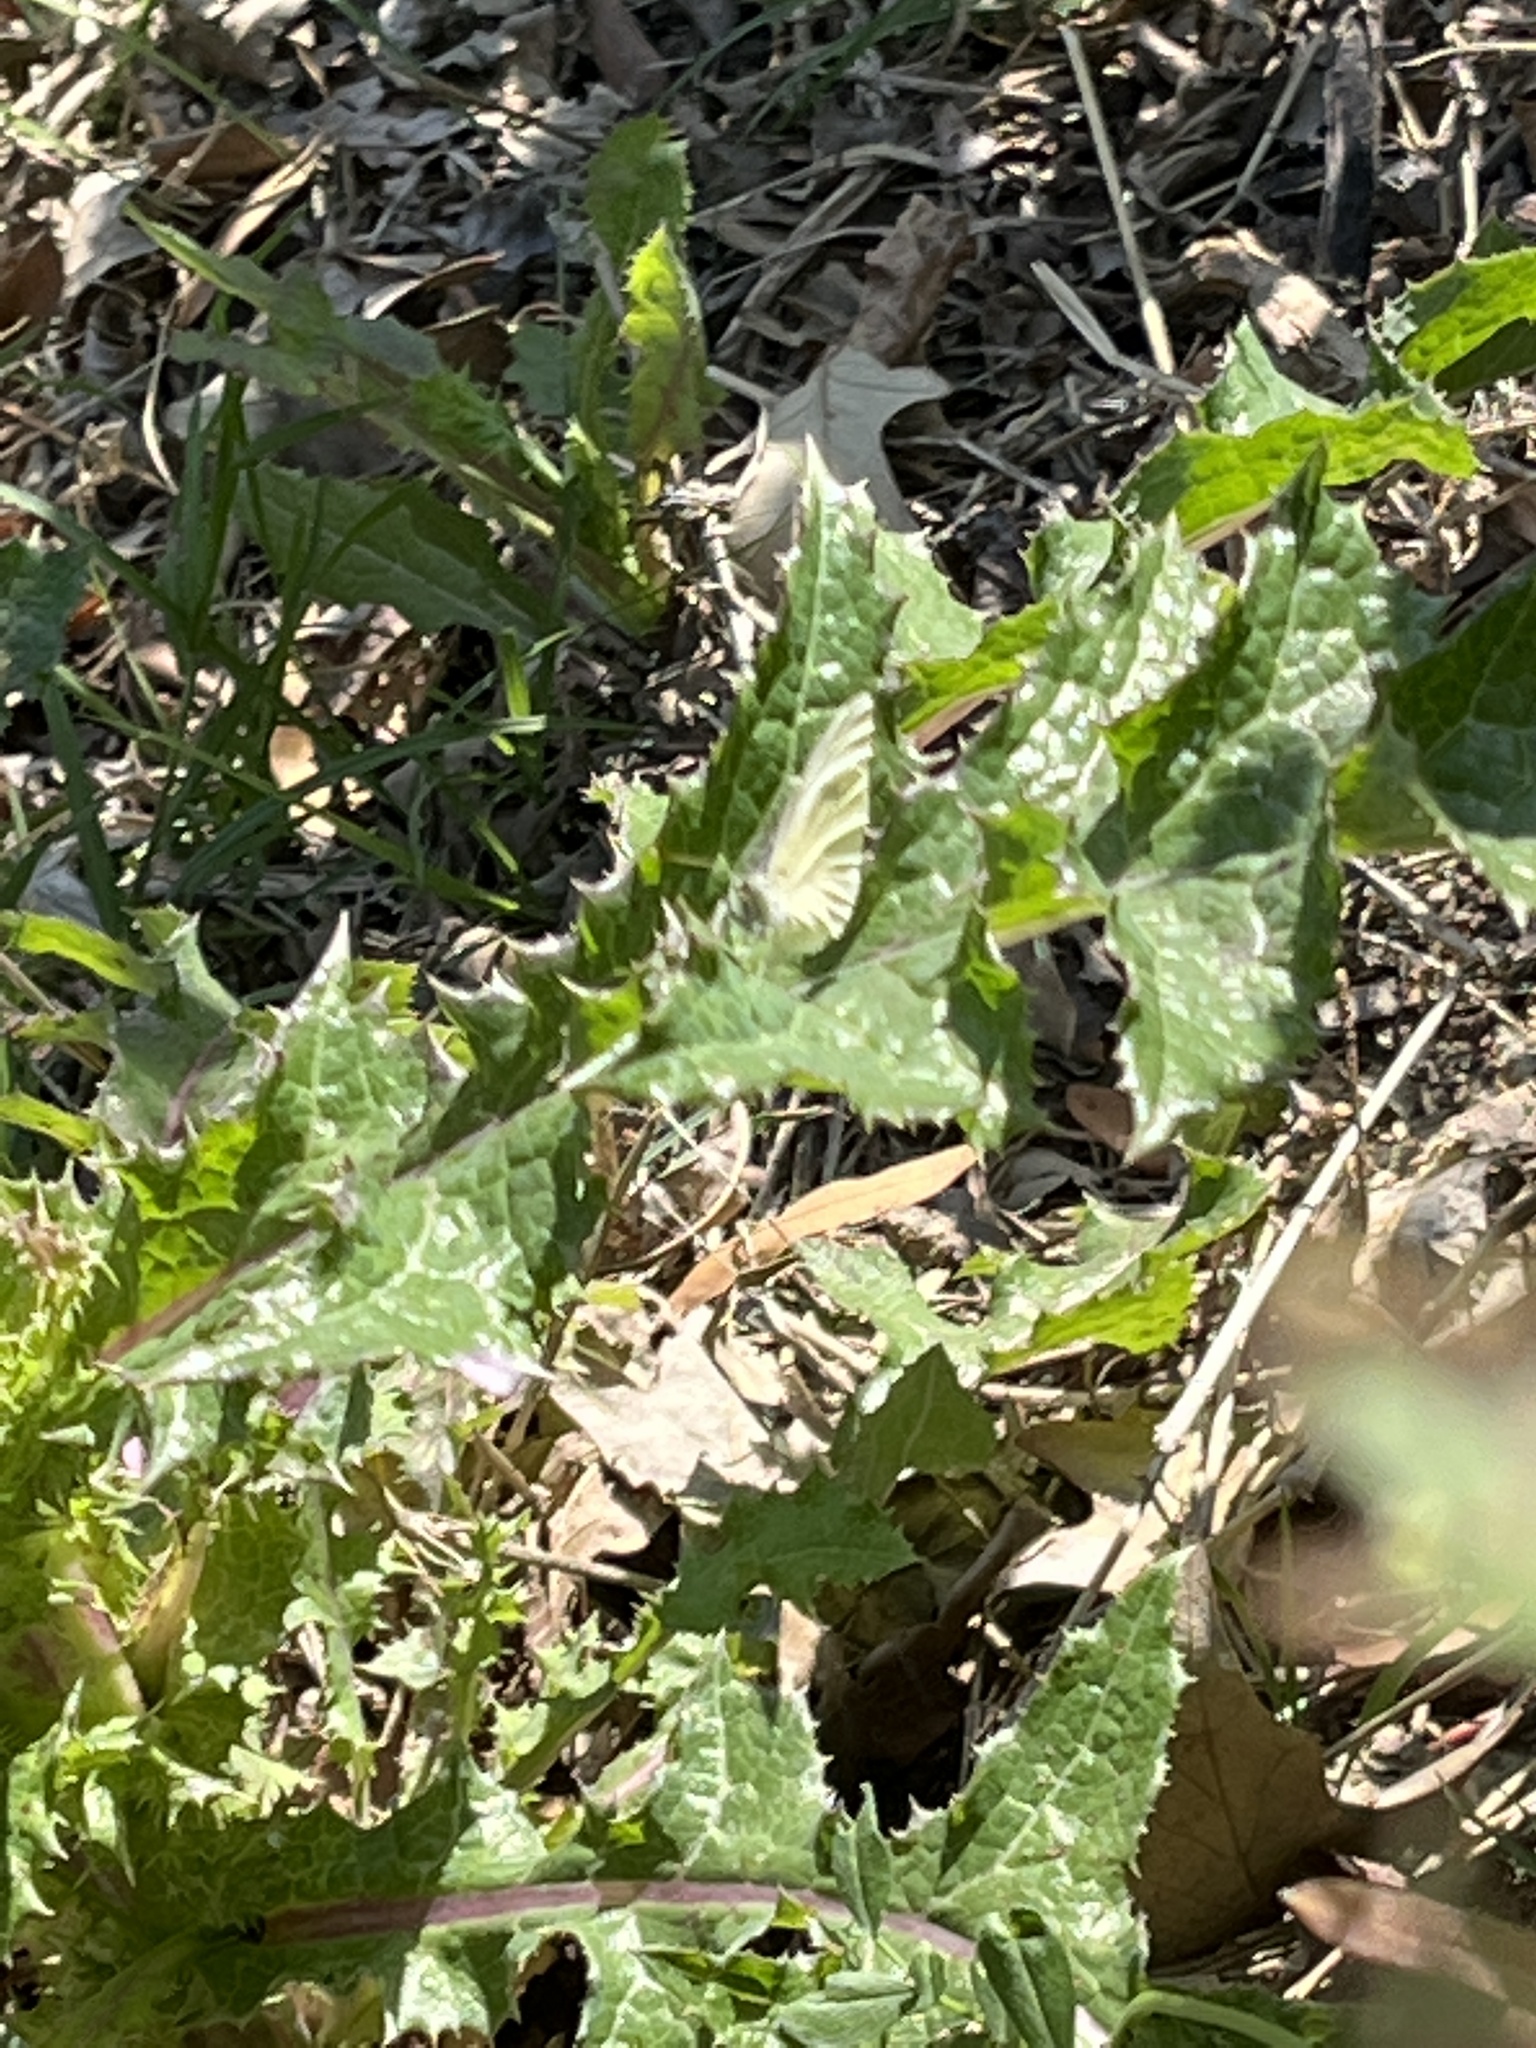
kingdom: Animalia
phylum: Arthropoda
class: Insecta
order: Lepidoptera
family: Pieridae
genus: Pieris
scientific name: Pieris rapae
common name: Small white
